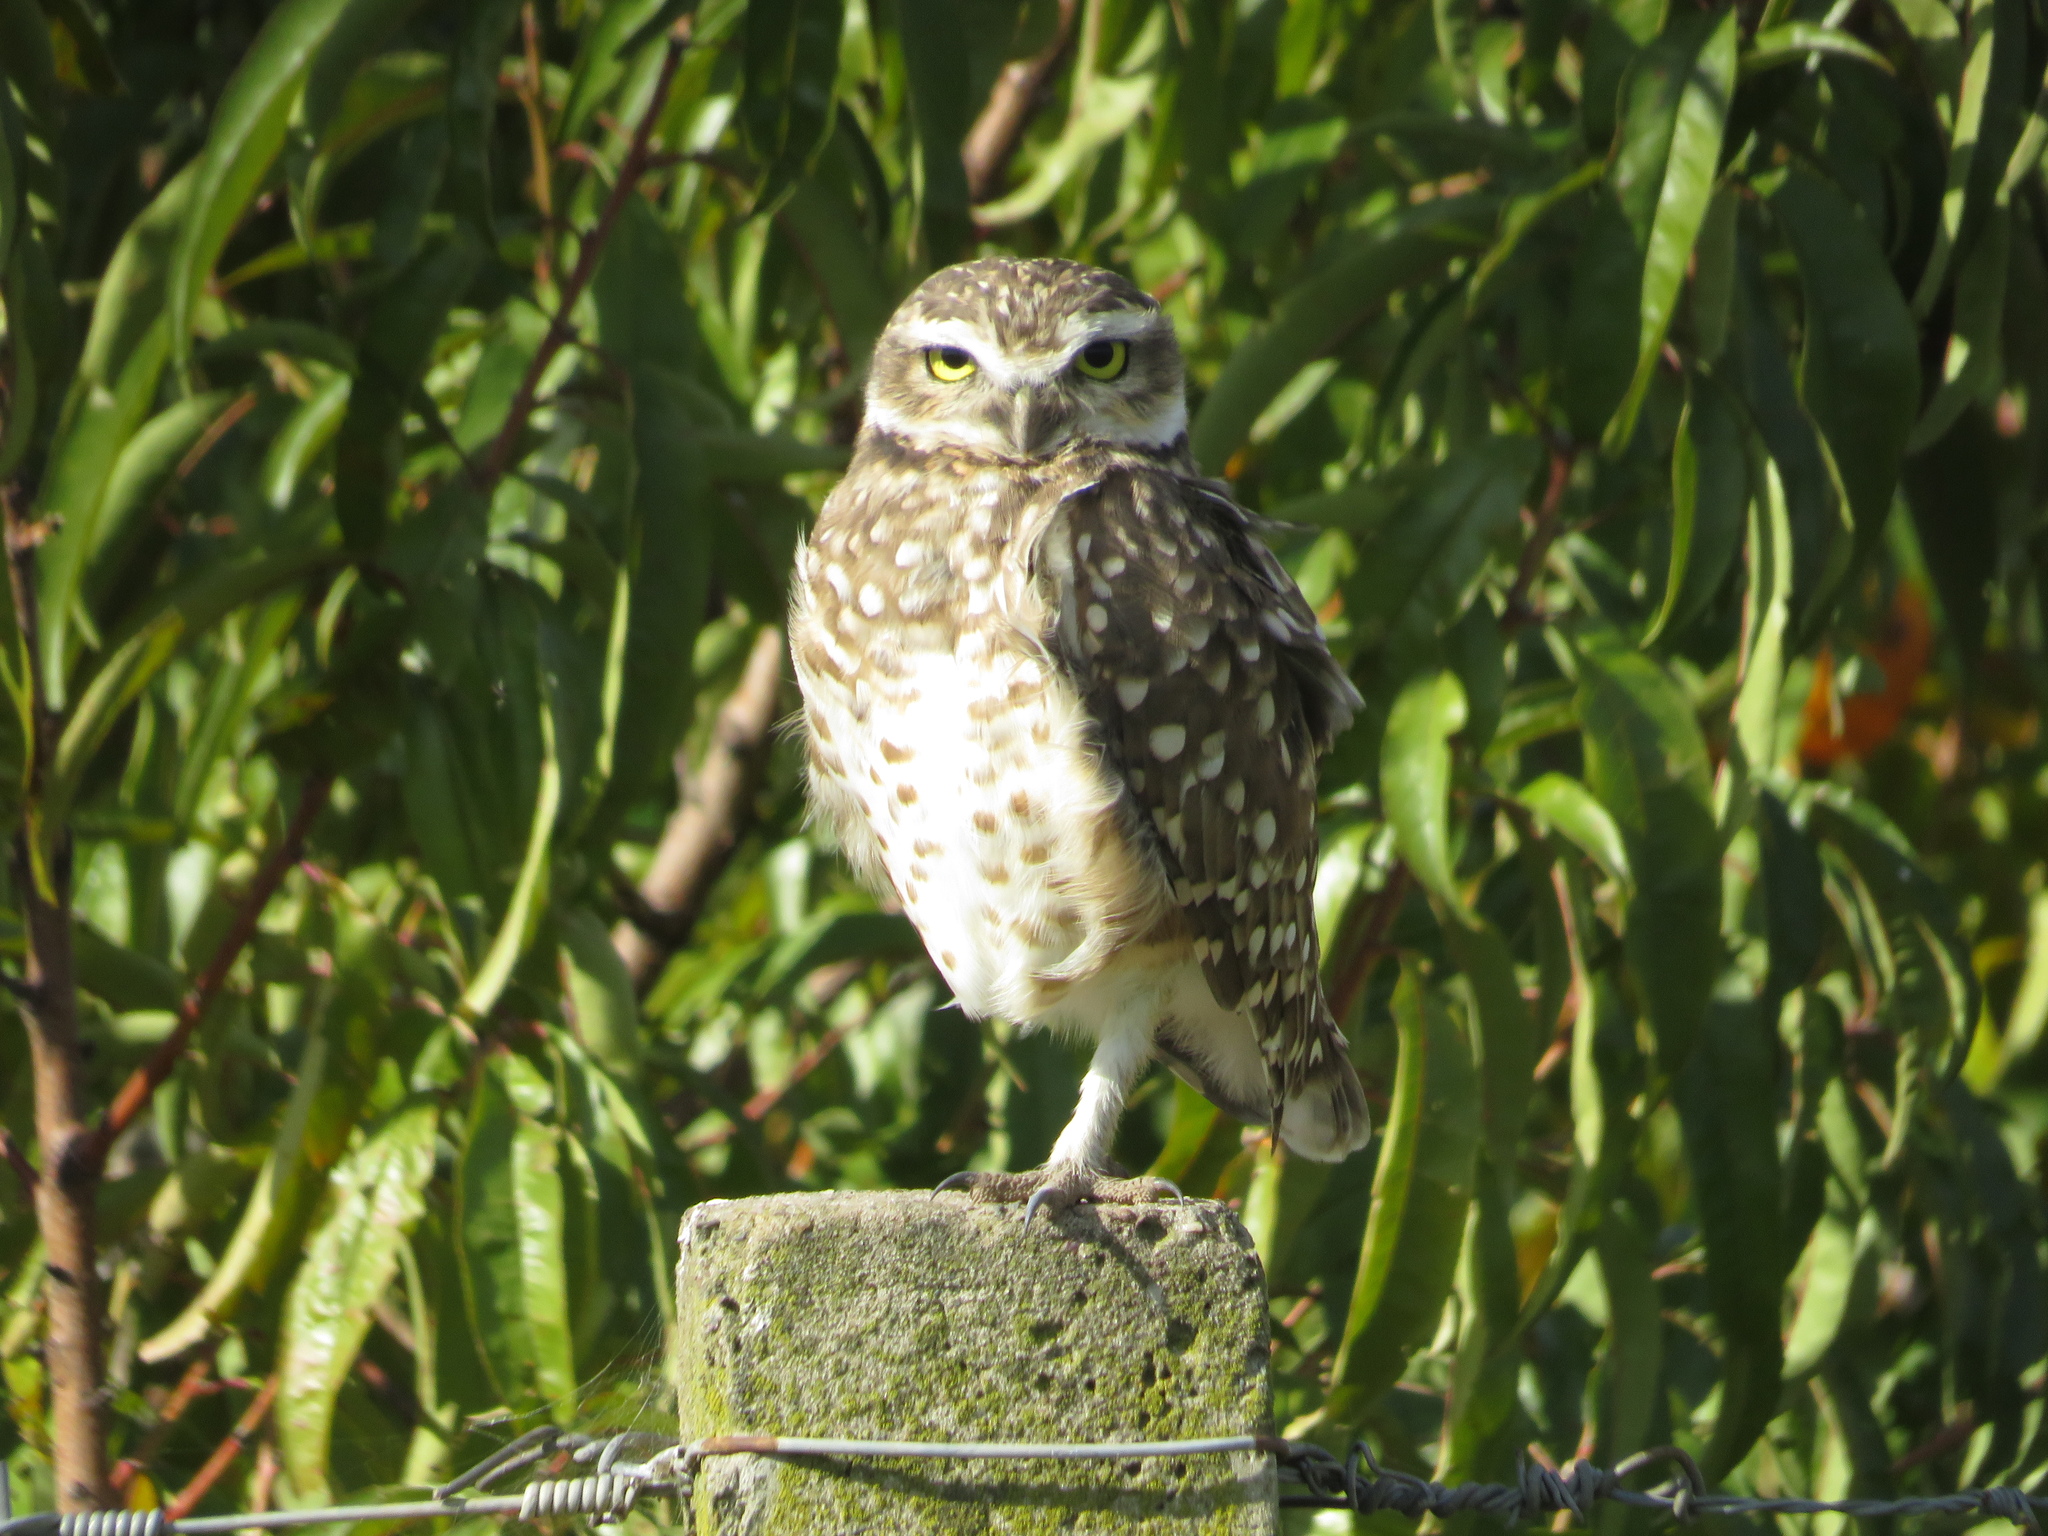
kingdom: Animalia
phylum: Chordata
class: Aves
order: Strigiformes
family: Strigidae
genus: Athene
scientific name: Athene cunicularia
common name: Burrowing owl
